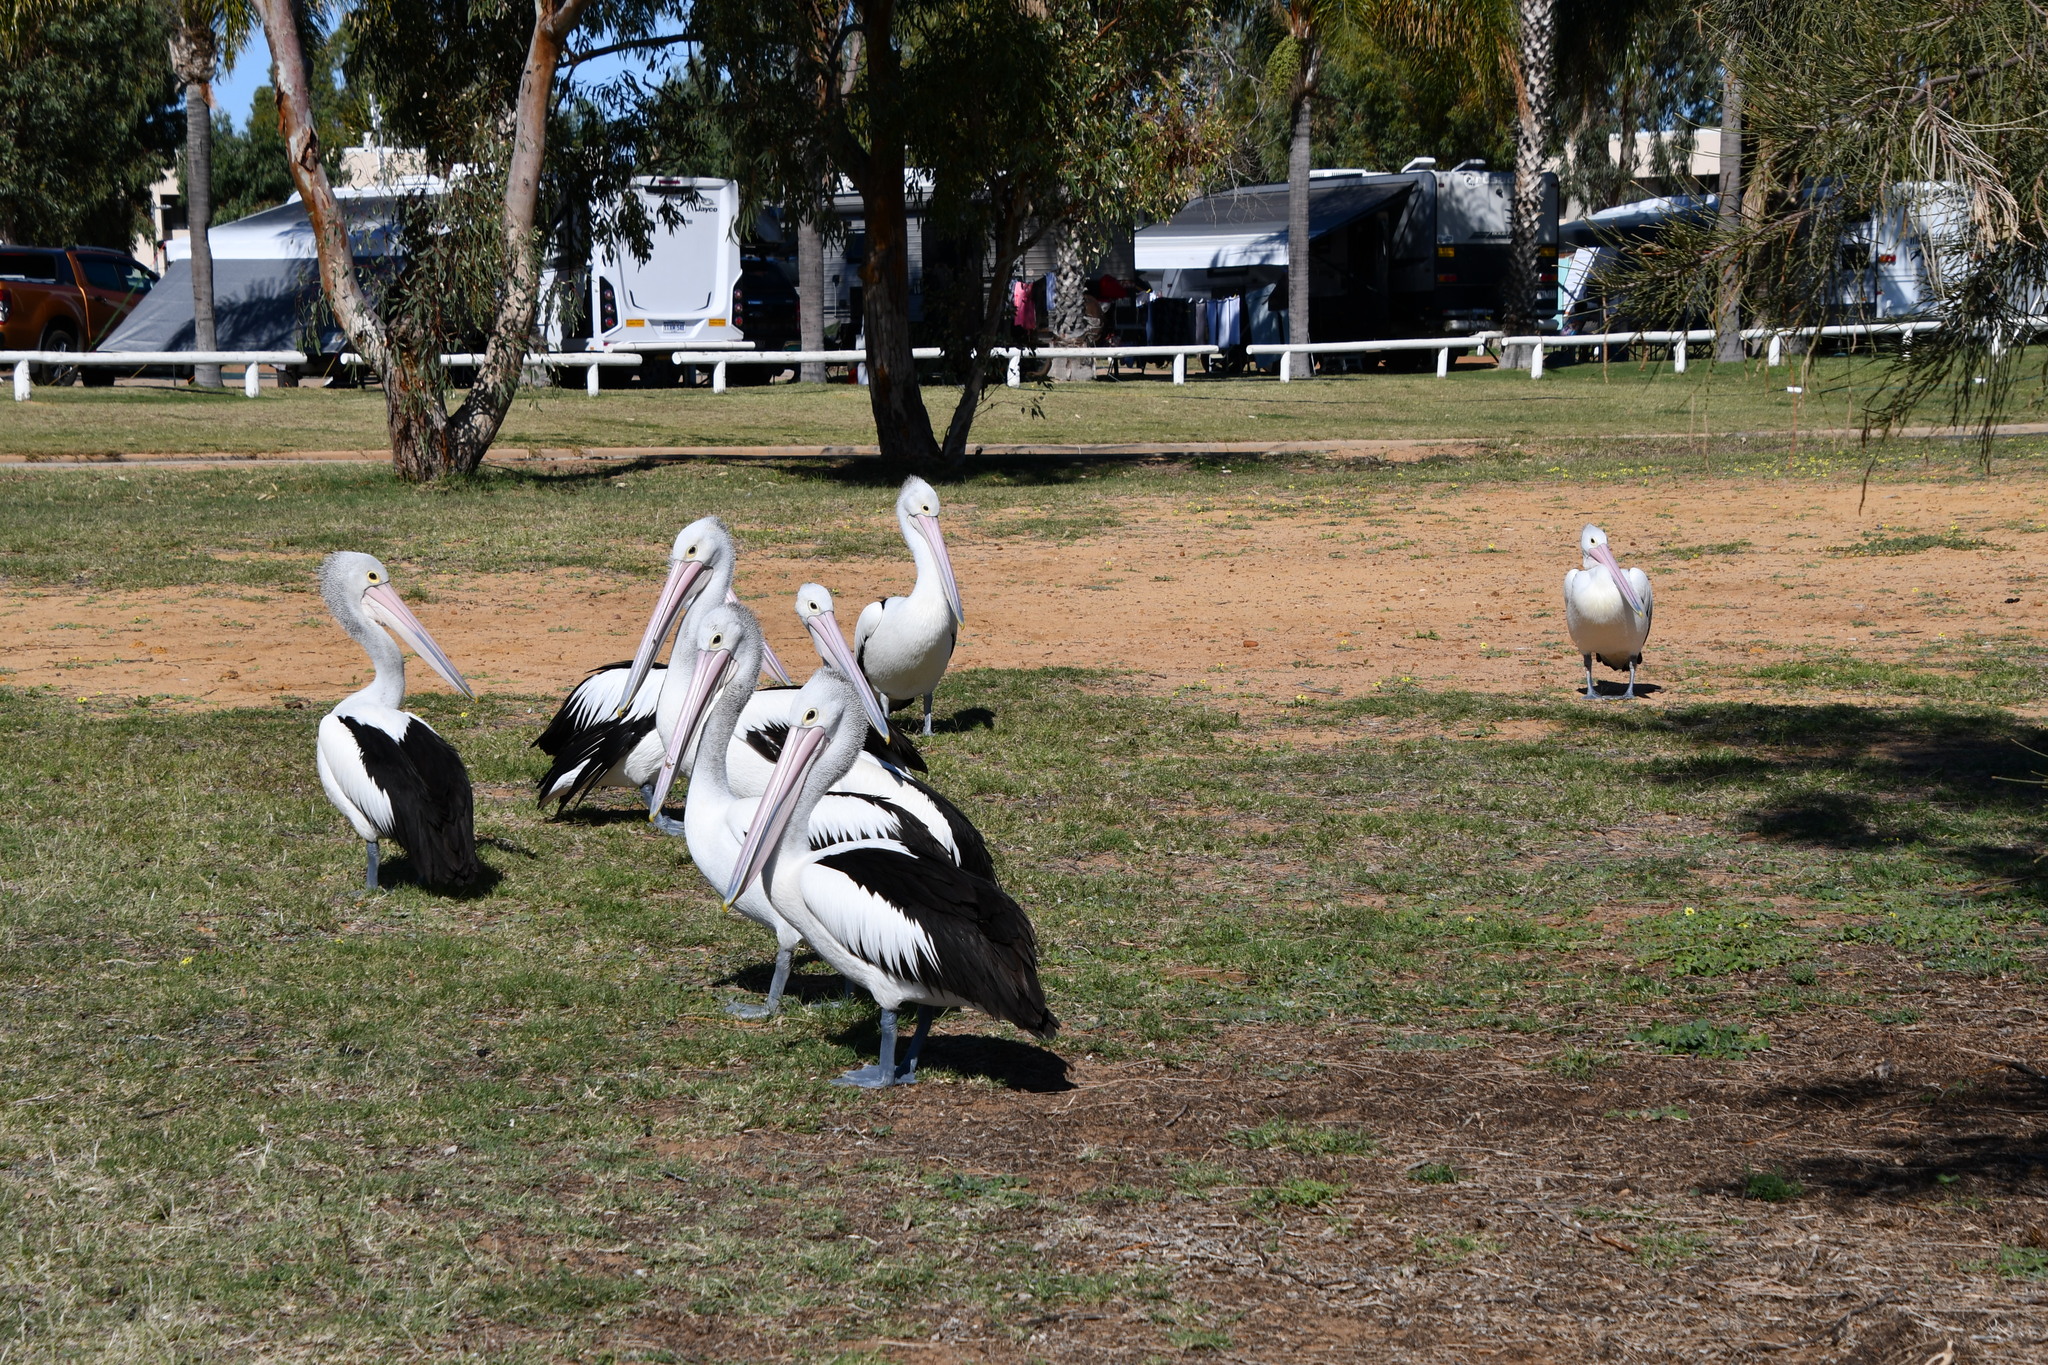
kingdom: Animalia
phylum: Chordata
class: Aves
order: Pelecaniformes
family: Pelecanidae
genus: Pelecanus
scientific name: Pelecanus conspicillatus
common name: Australian pelican
